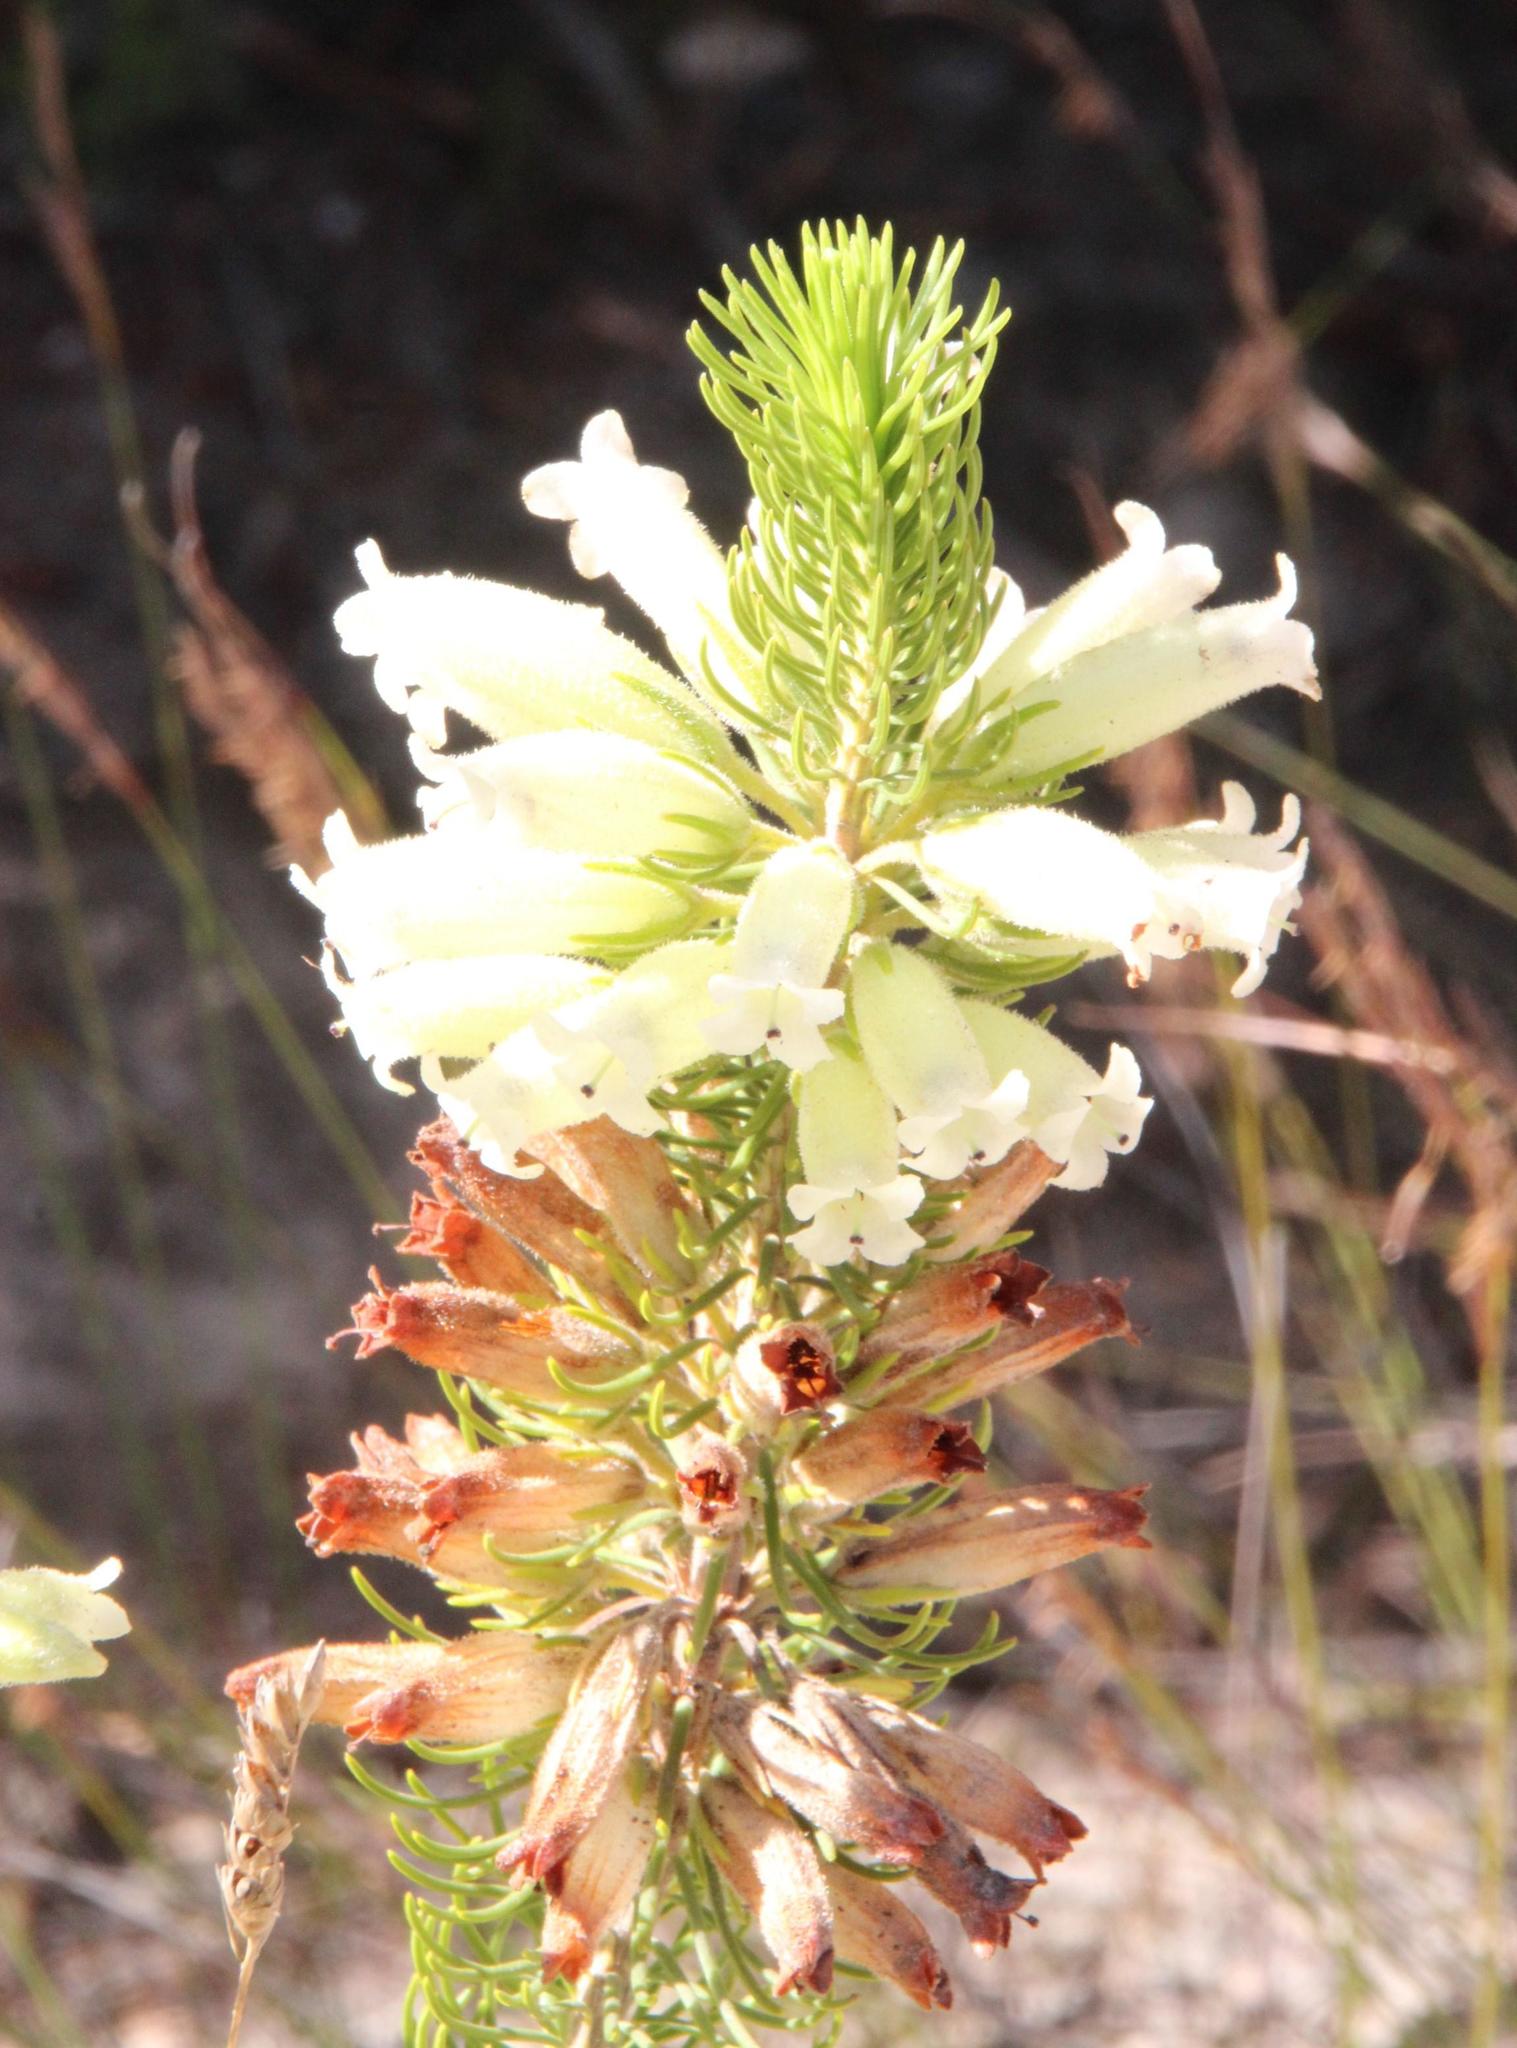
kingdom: Plantae
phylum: Tracheophyta
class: Magnoliopsida
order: Ericales
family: Ericaceae
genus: Erica
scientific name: Erica viscaria
